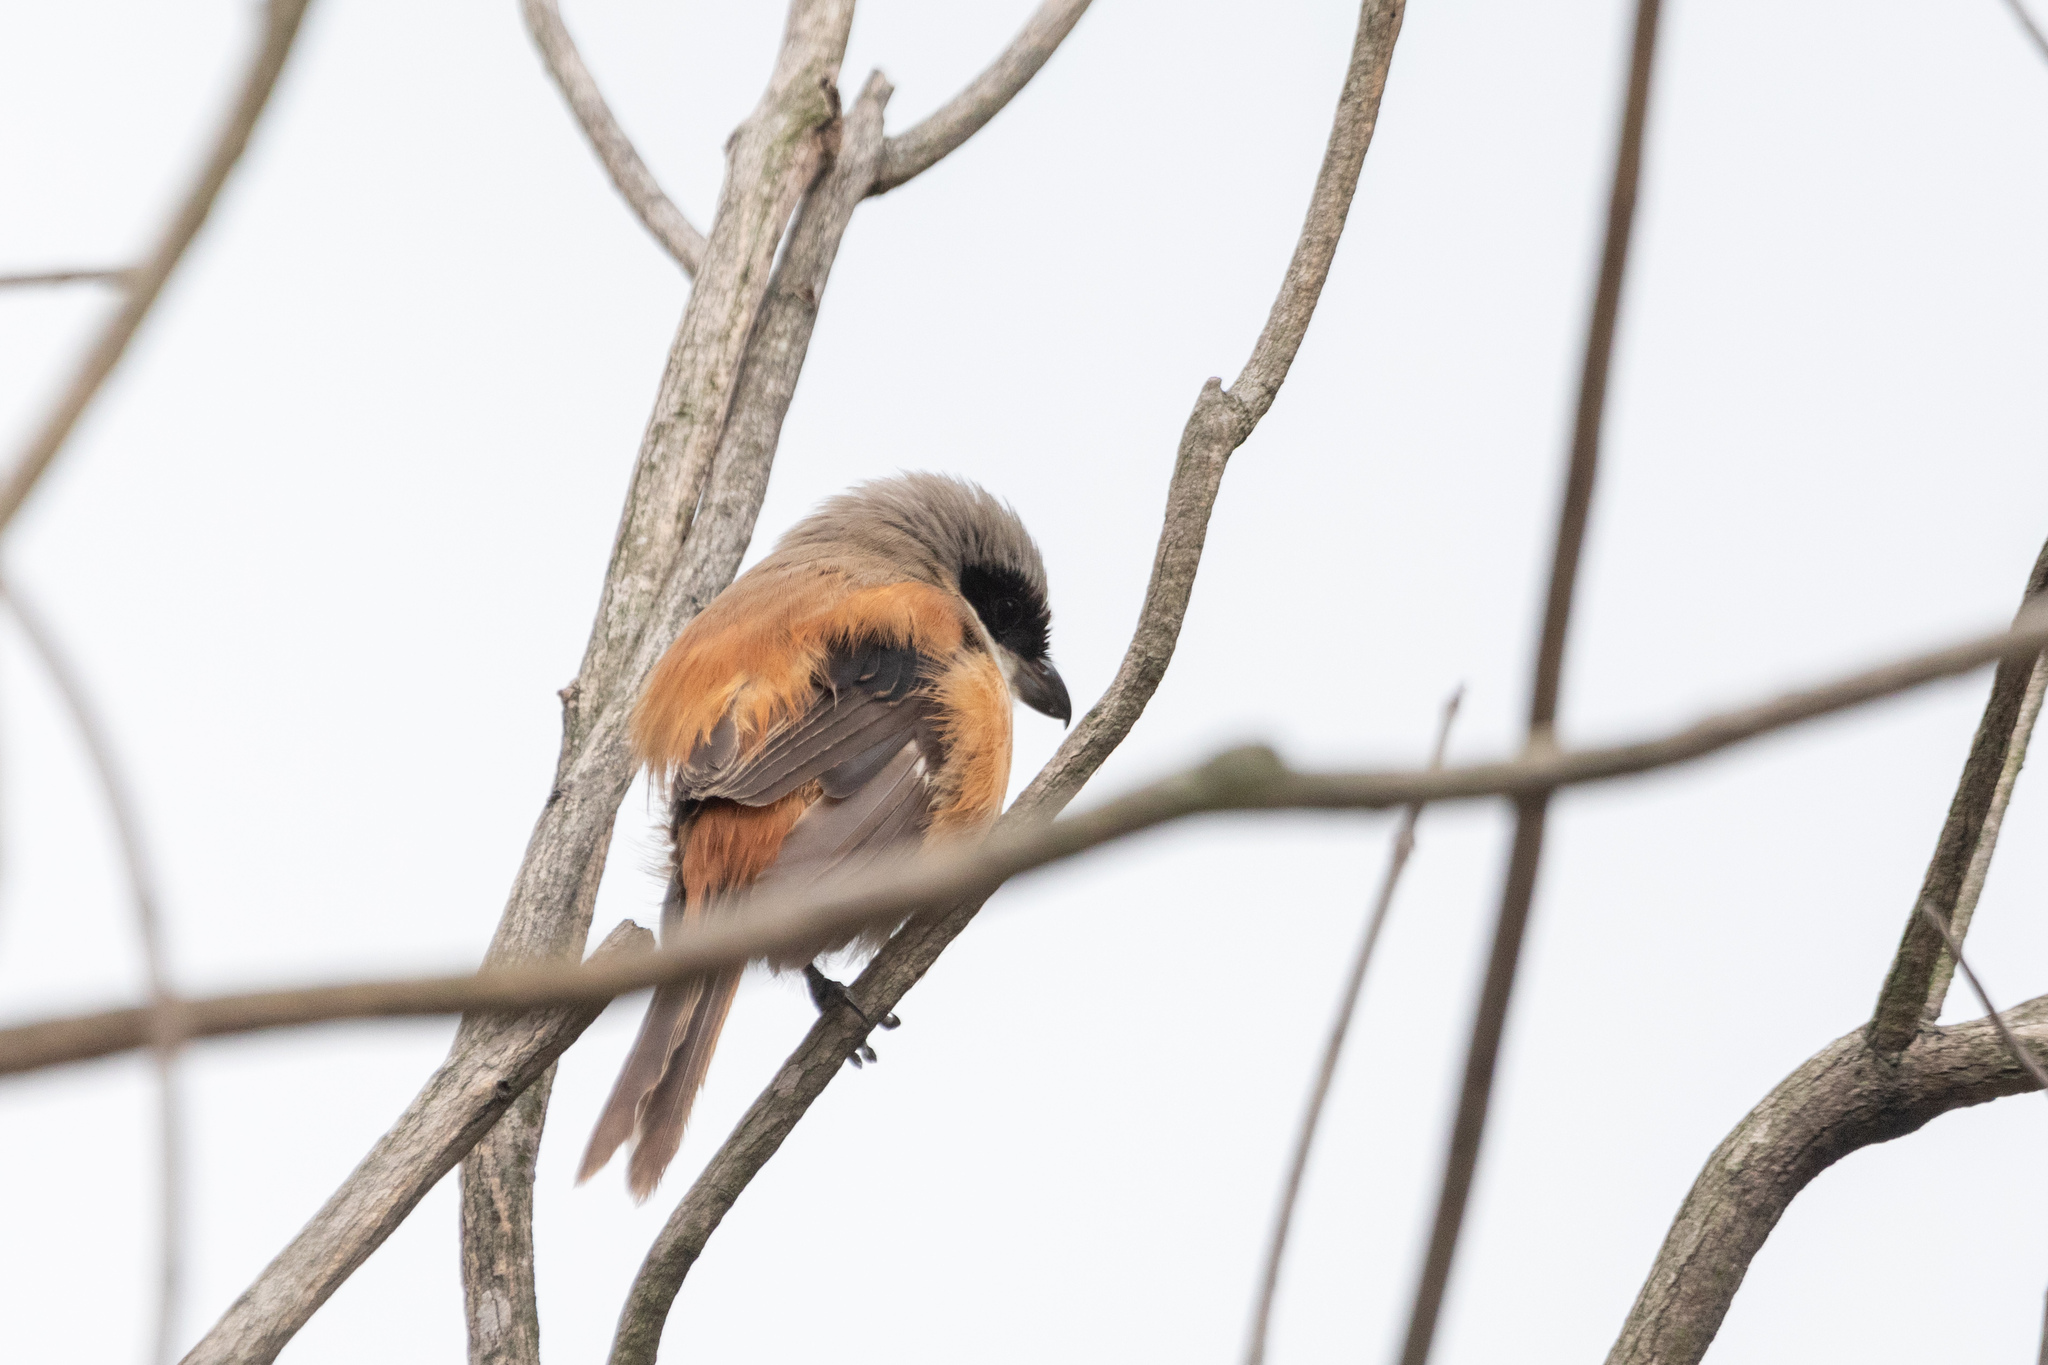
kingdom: Animalia
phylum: Chordata
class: Aves
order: Passeriformes
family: Laniidae
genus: Lanius
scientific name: Lanius schach
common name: Long-tailed shrike
